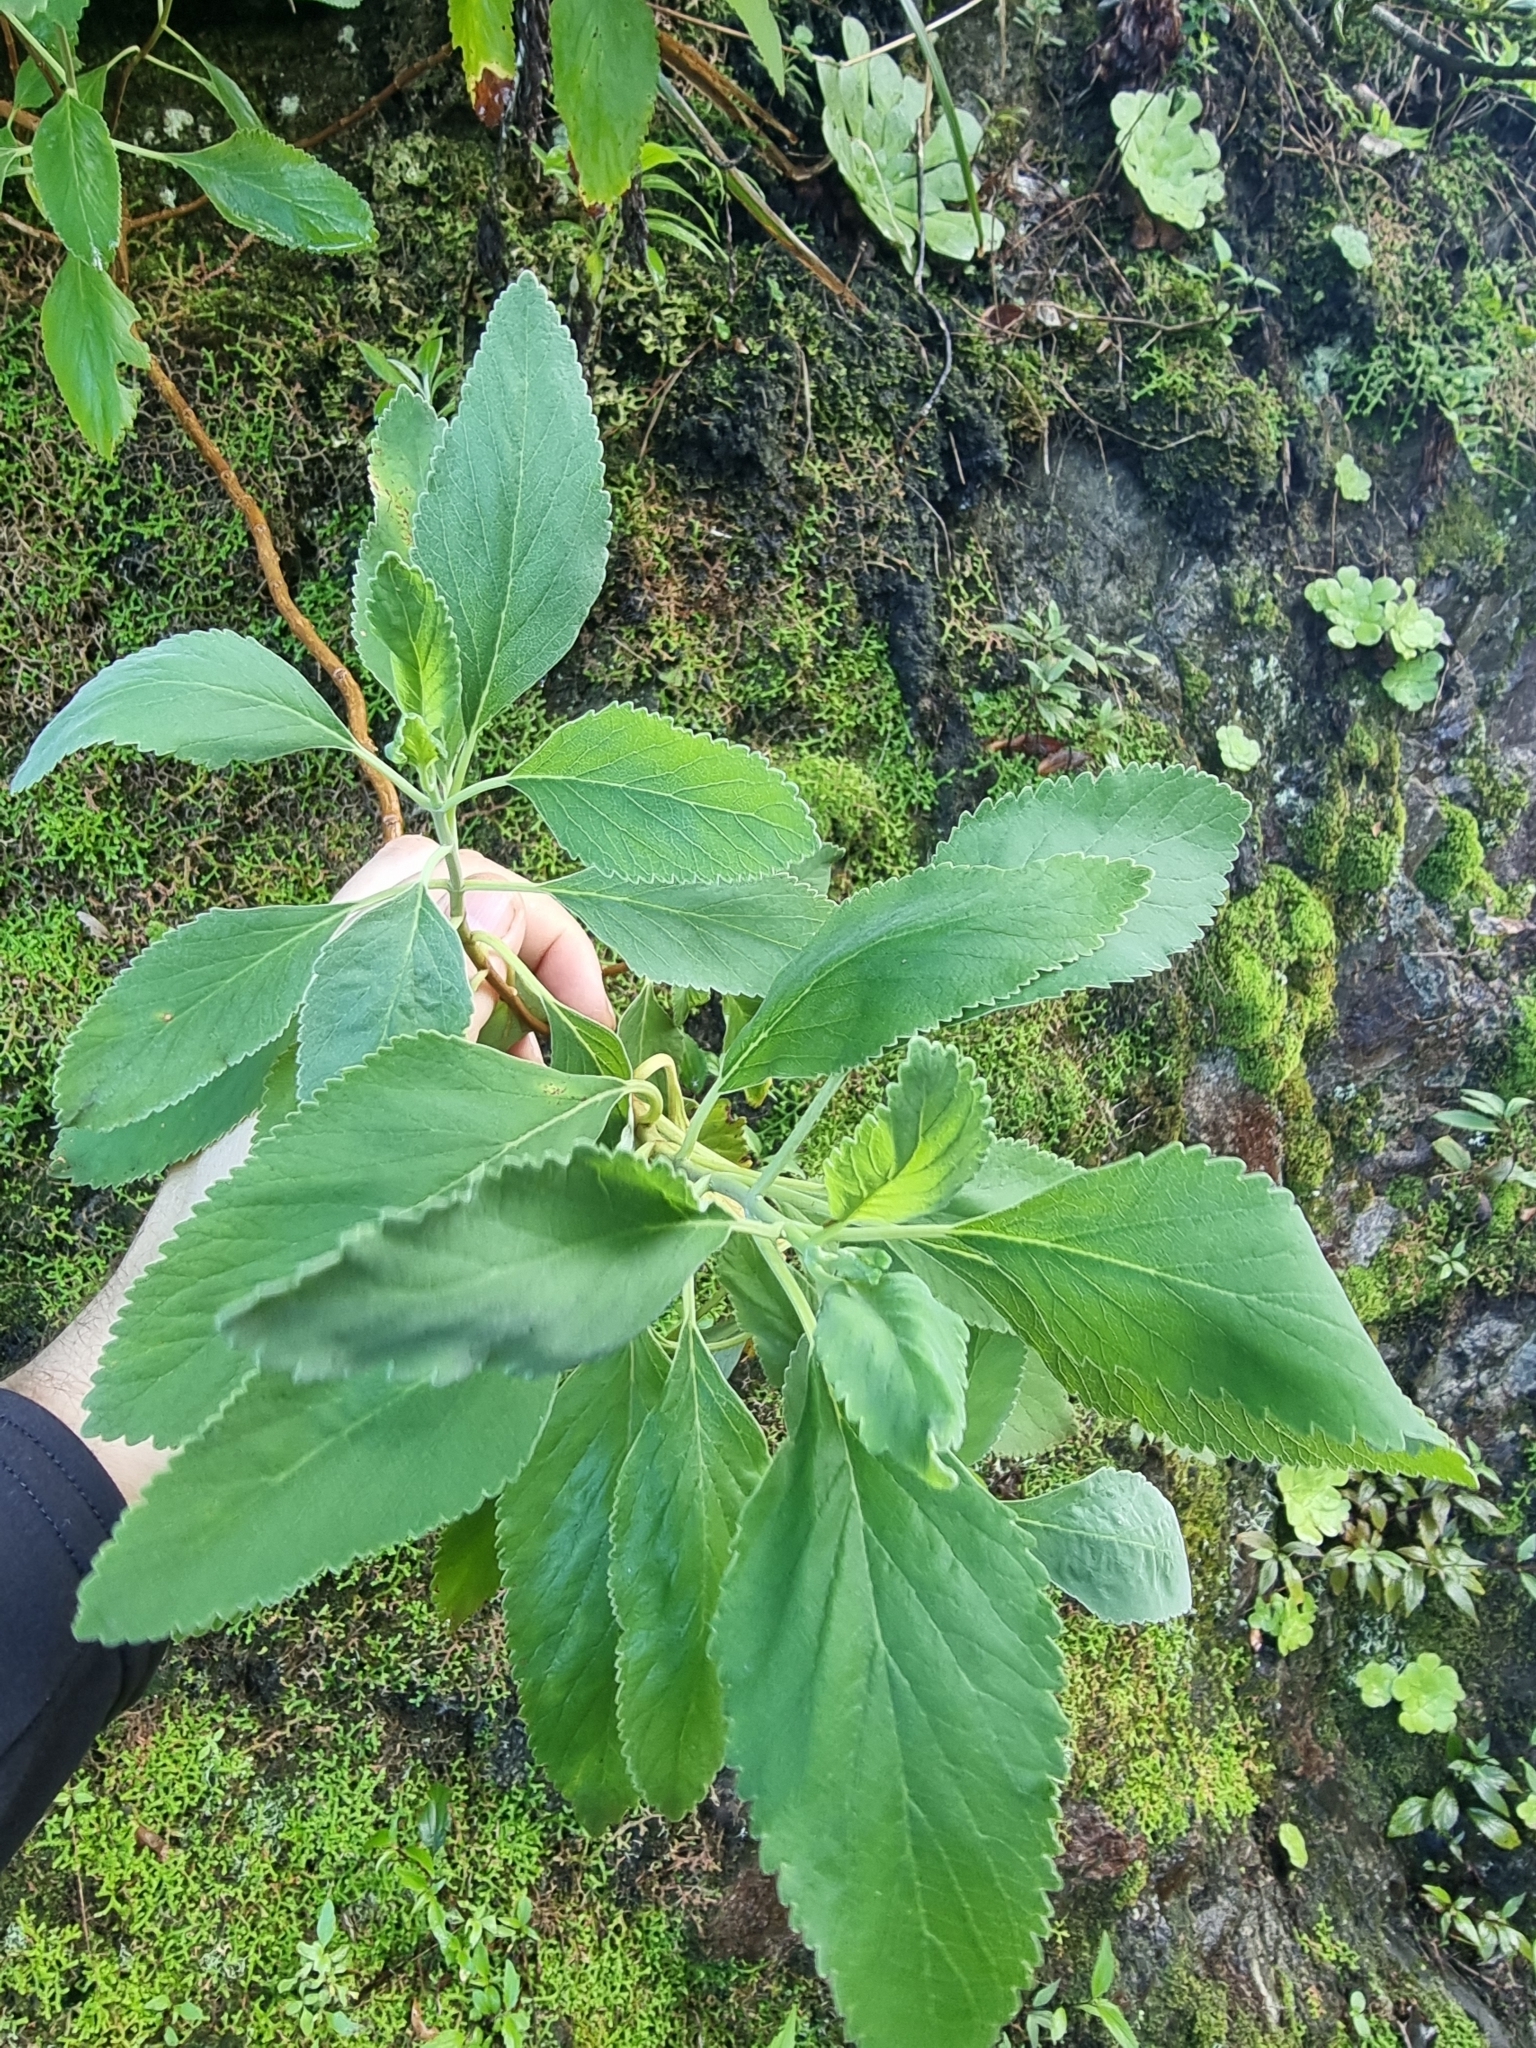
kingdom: Plantae
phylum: Tracheophyta
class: Magnoliopsida
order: Lamiales
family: Lamiaceae
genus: Teucrium
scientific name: Teucrium betonicum
